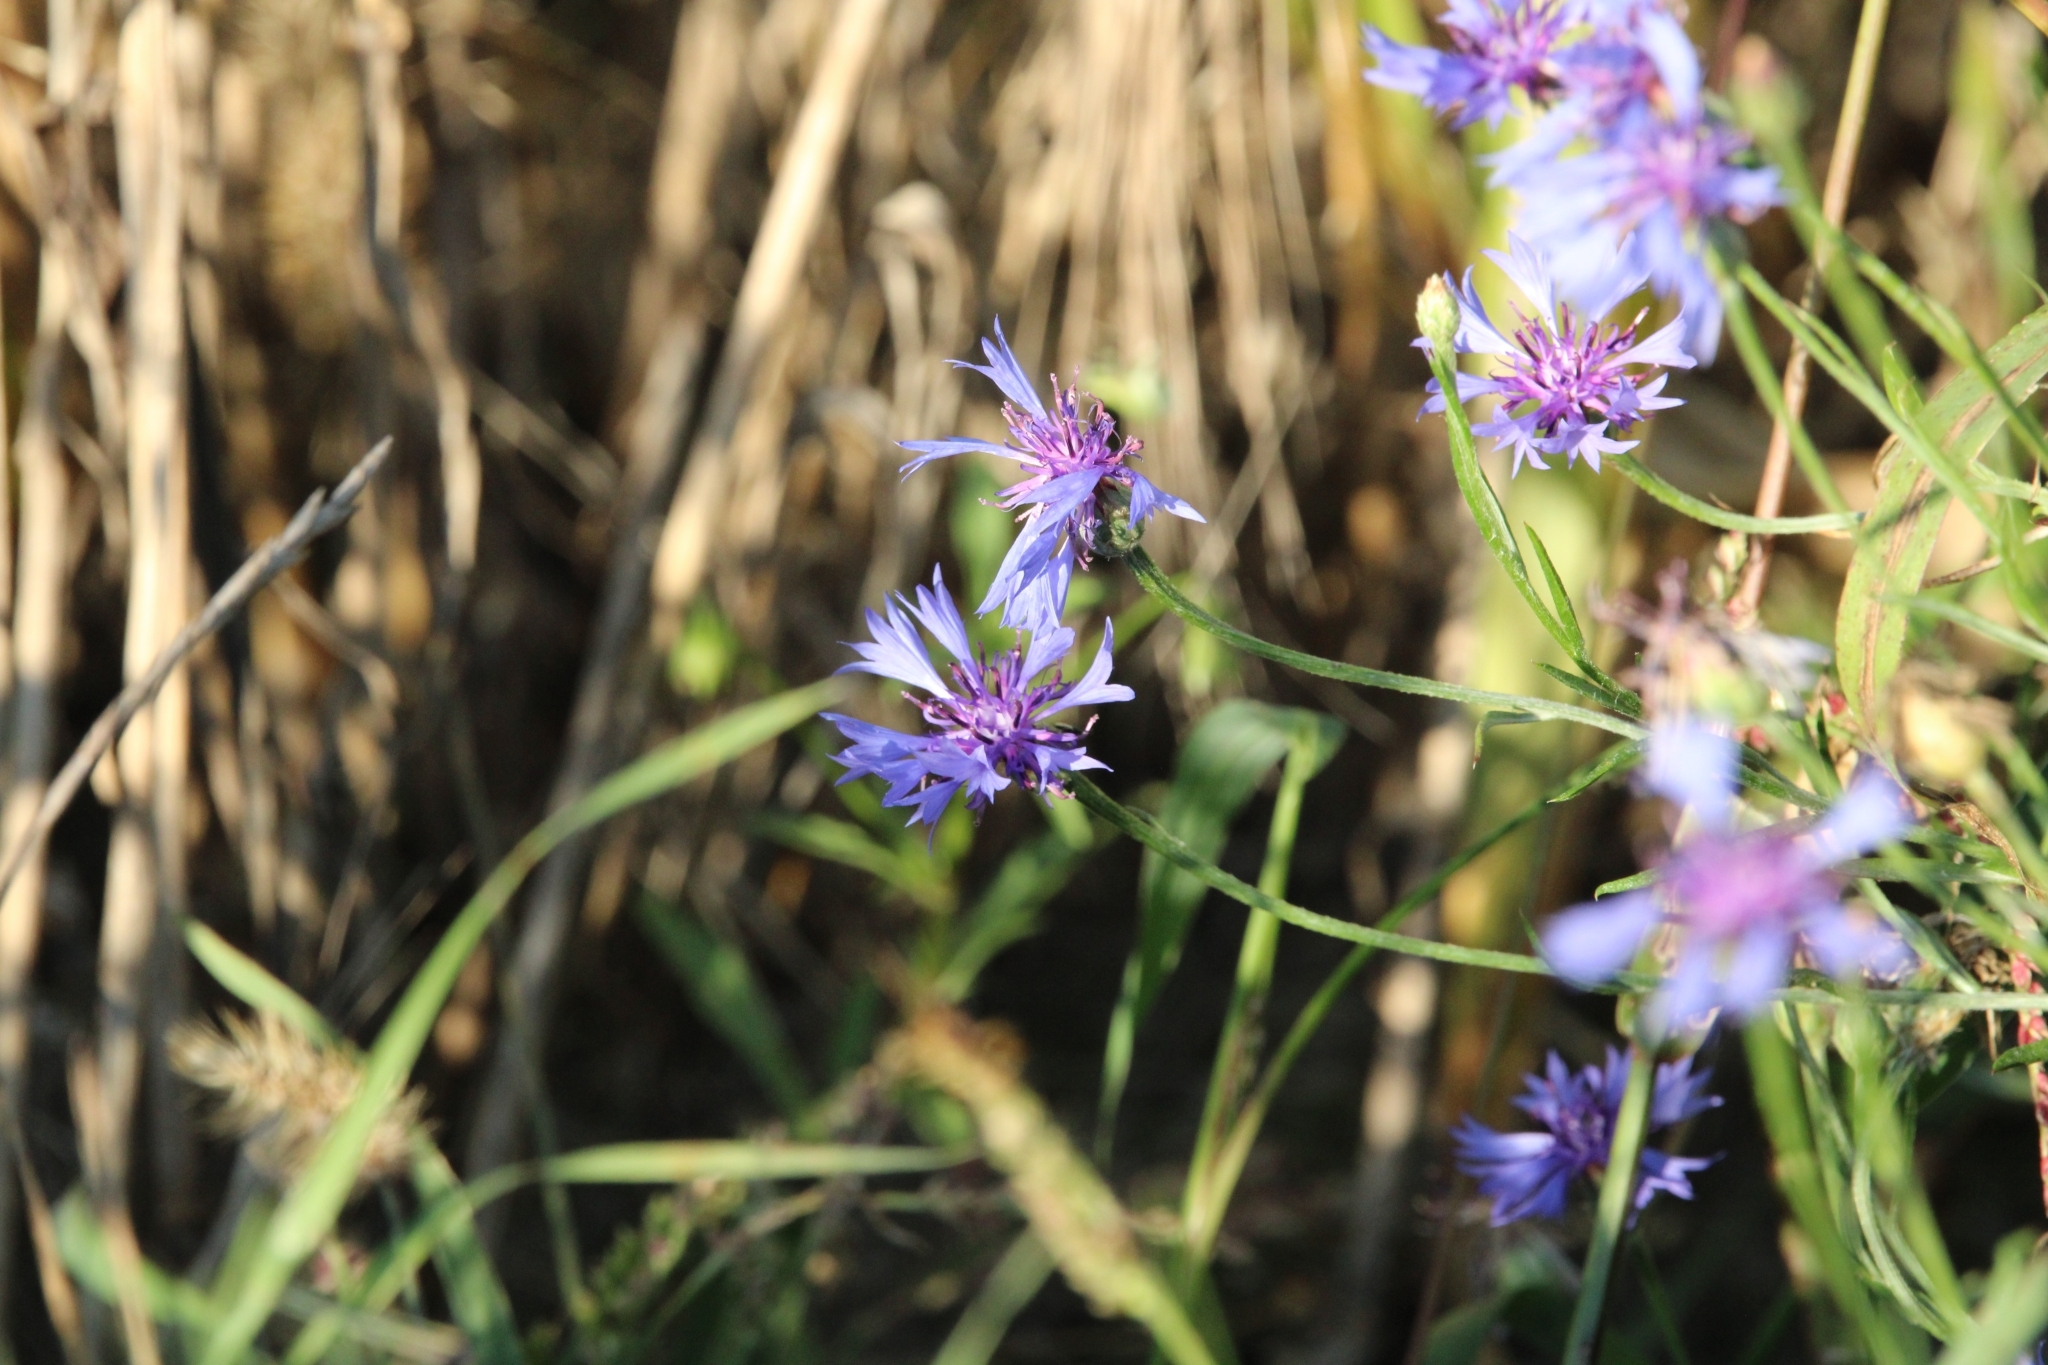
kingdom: Plantae
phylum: Tracheophyta
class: Magnoliopsida
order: Asterales
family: Asteraceae
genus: Centaurea
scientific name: Centaurea cyanus
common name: Cornflower
